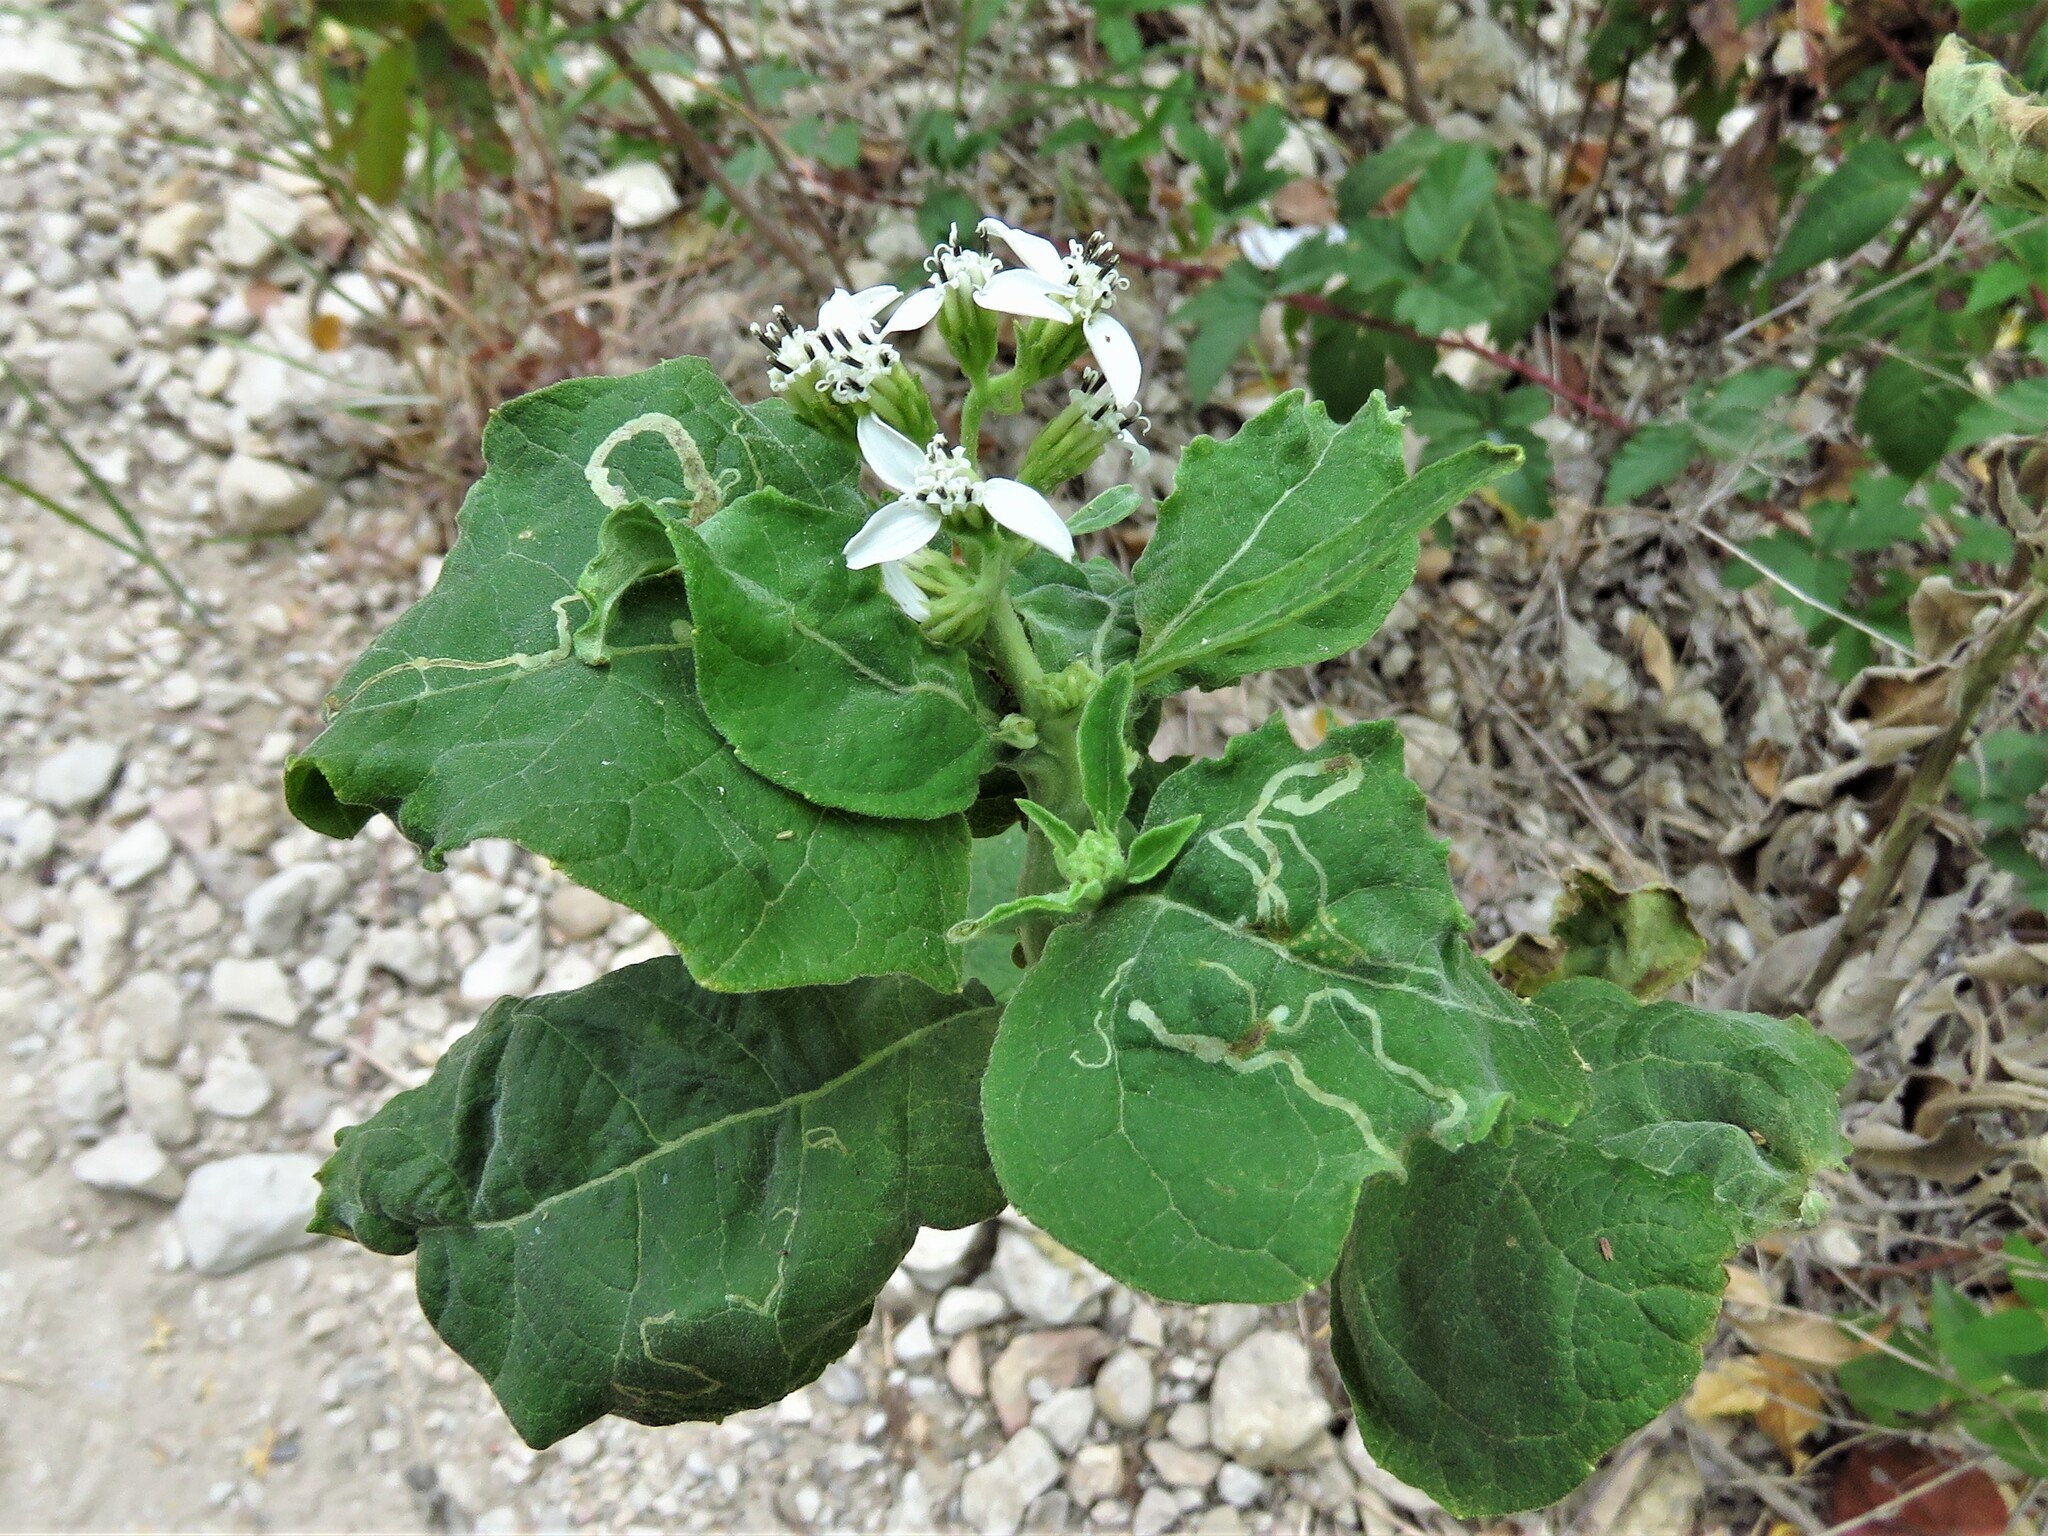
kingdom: Plantae
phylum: Tracheophyta
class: Magnoliopsida
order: Asterales
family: Asteraceae
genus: Verbesina
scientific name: Verbesina virginica
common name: Frostweed
